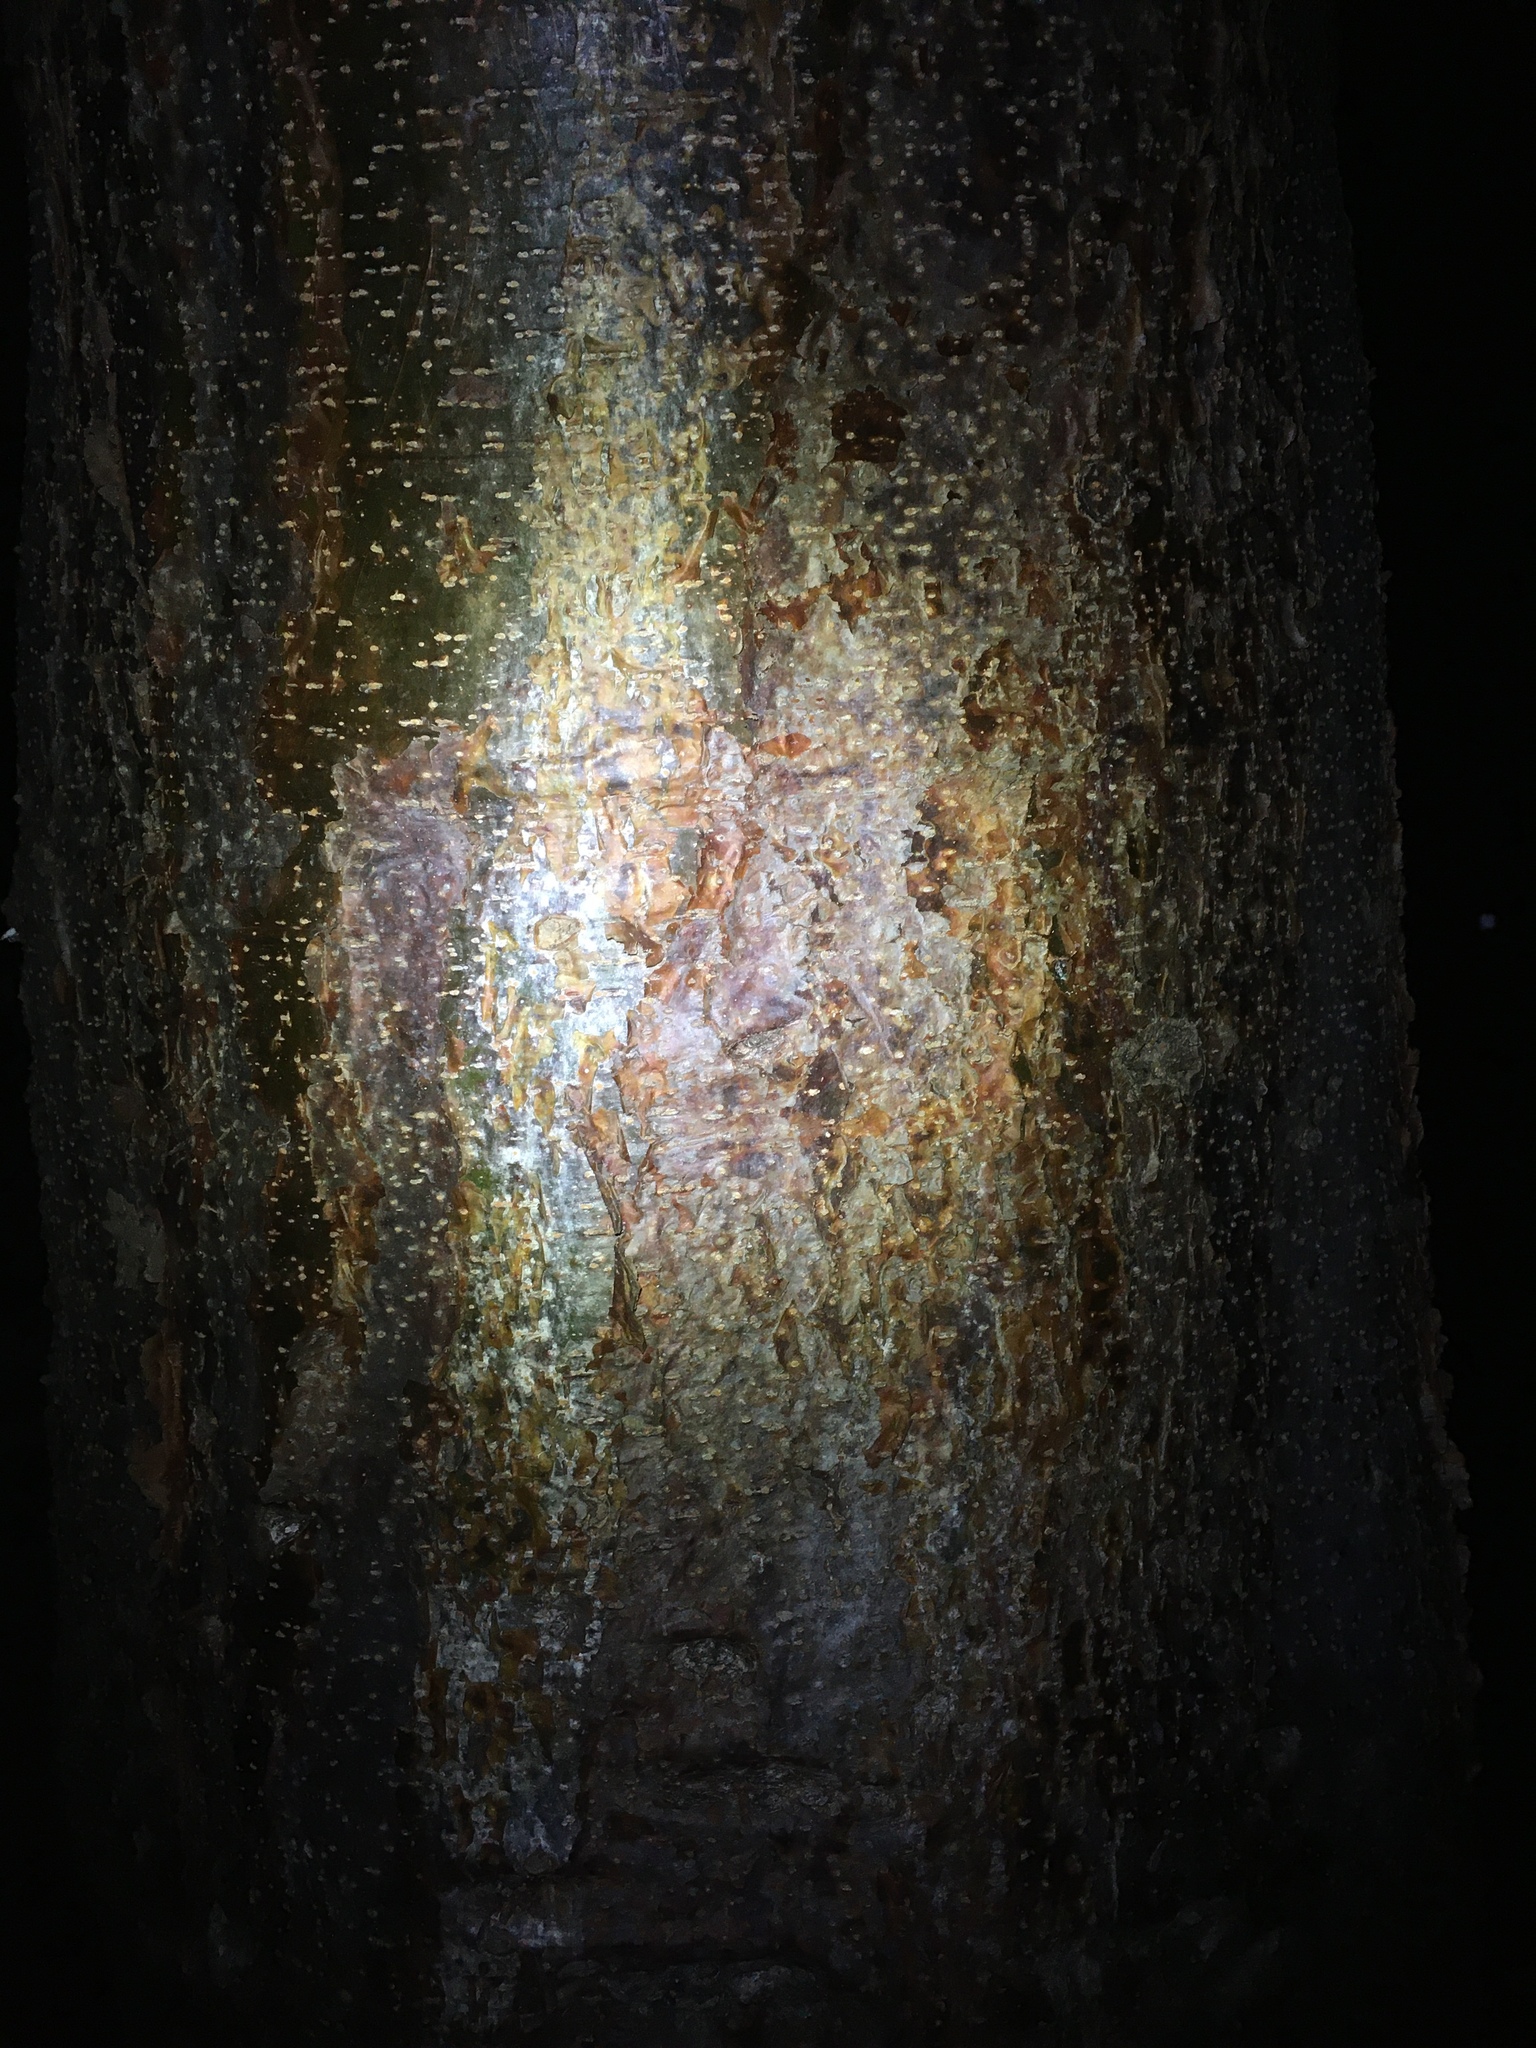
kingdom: Plantae
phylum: Tracheophyta
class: Magnoliopsida
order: Sapindales
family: Burseraceae
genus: Bursera
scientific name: Bursera simaruba
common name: Turpentine tree
